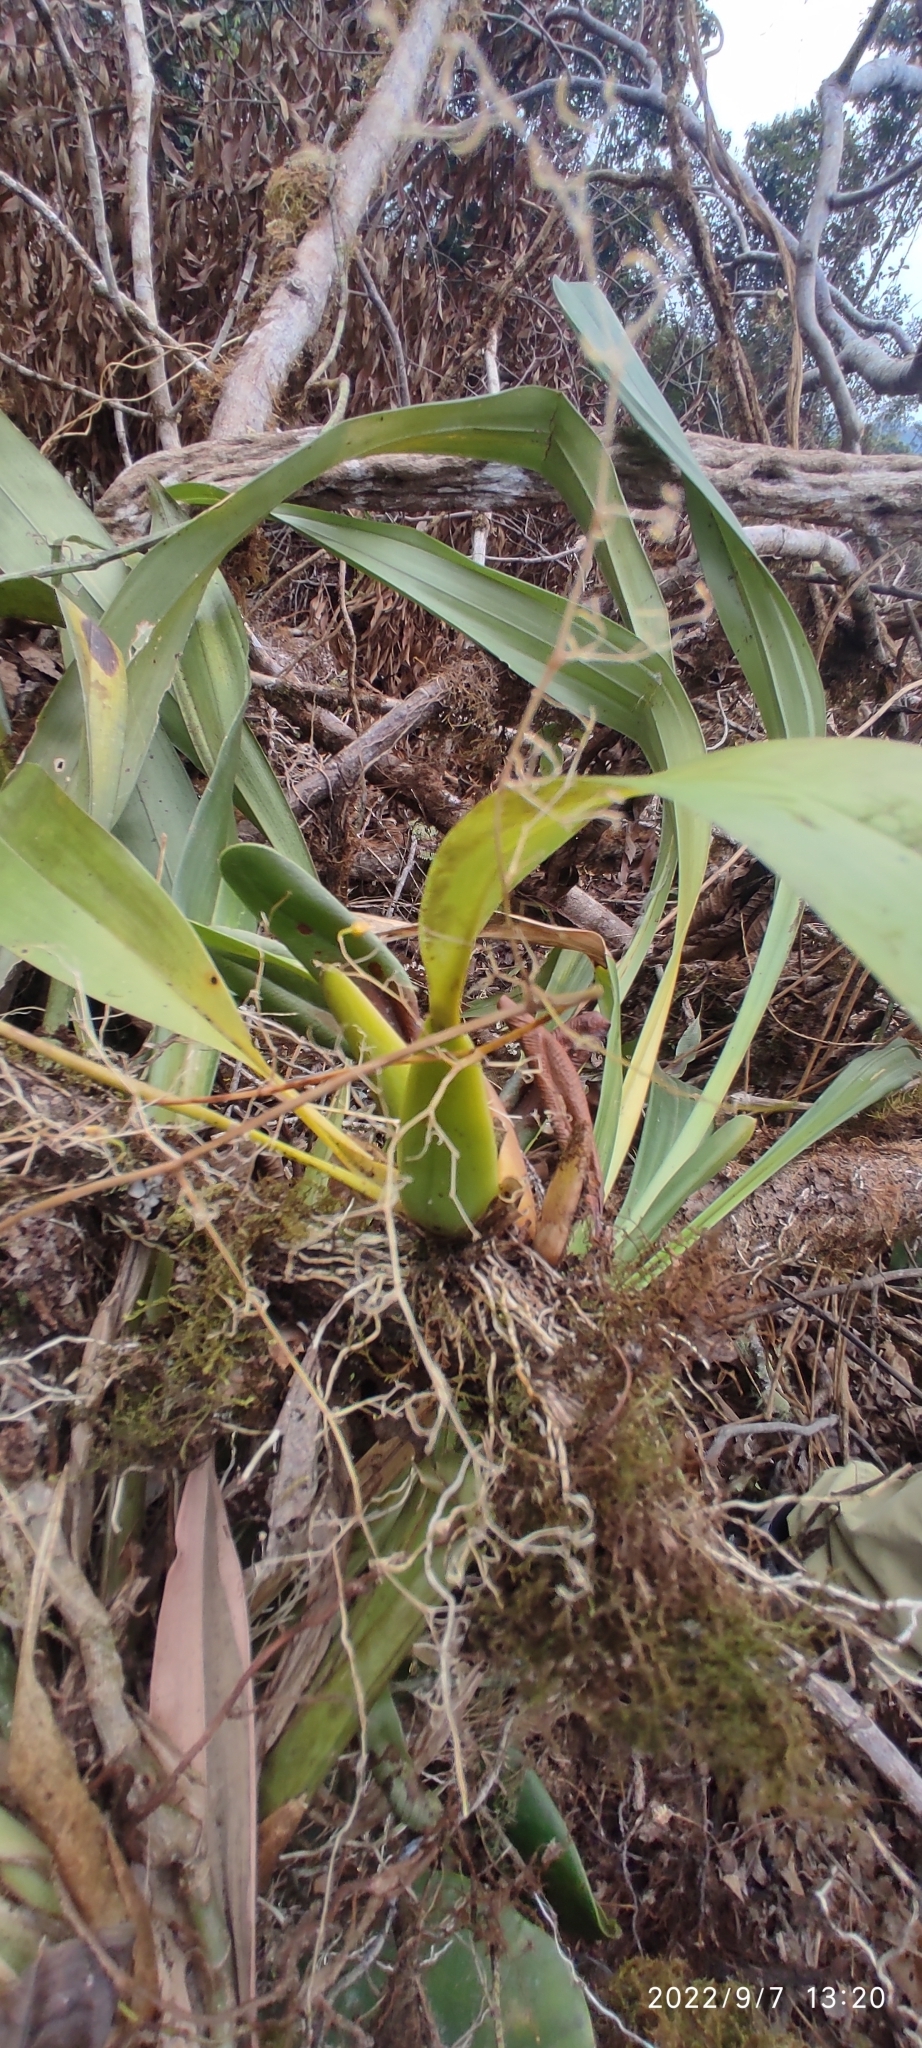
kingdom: Plantae
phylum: Tracheophyta
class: Liliopsida
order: Asparagales
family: Orchidaceae
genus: Oncidium
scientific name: Oncidium bryolophotum
